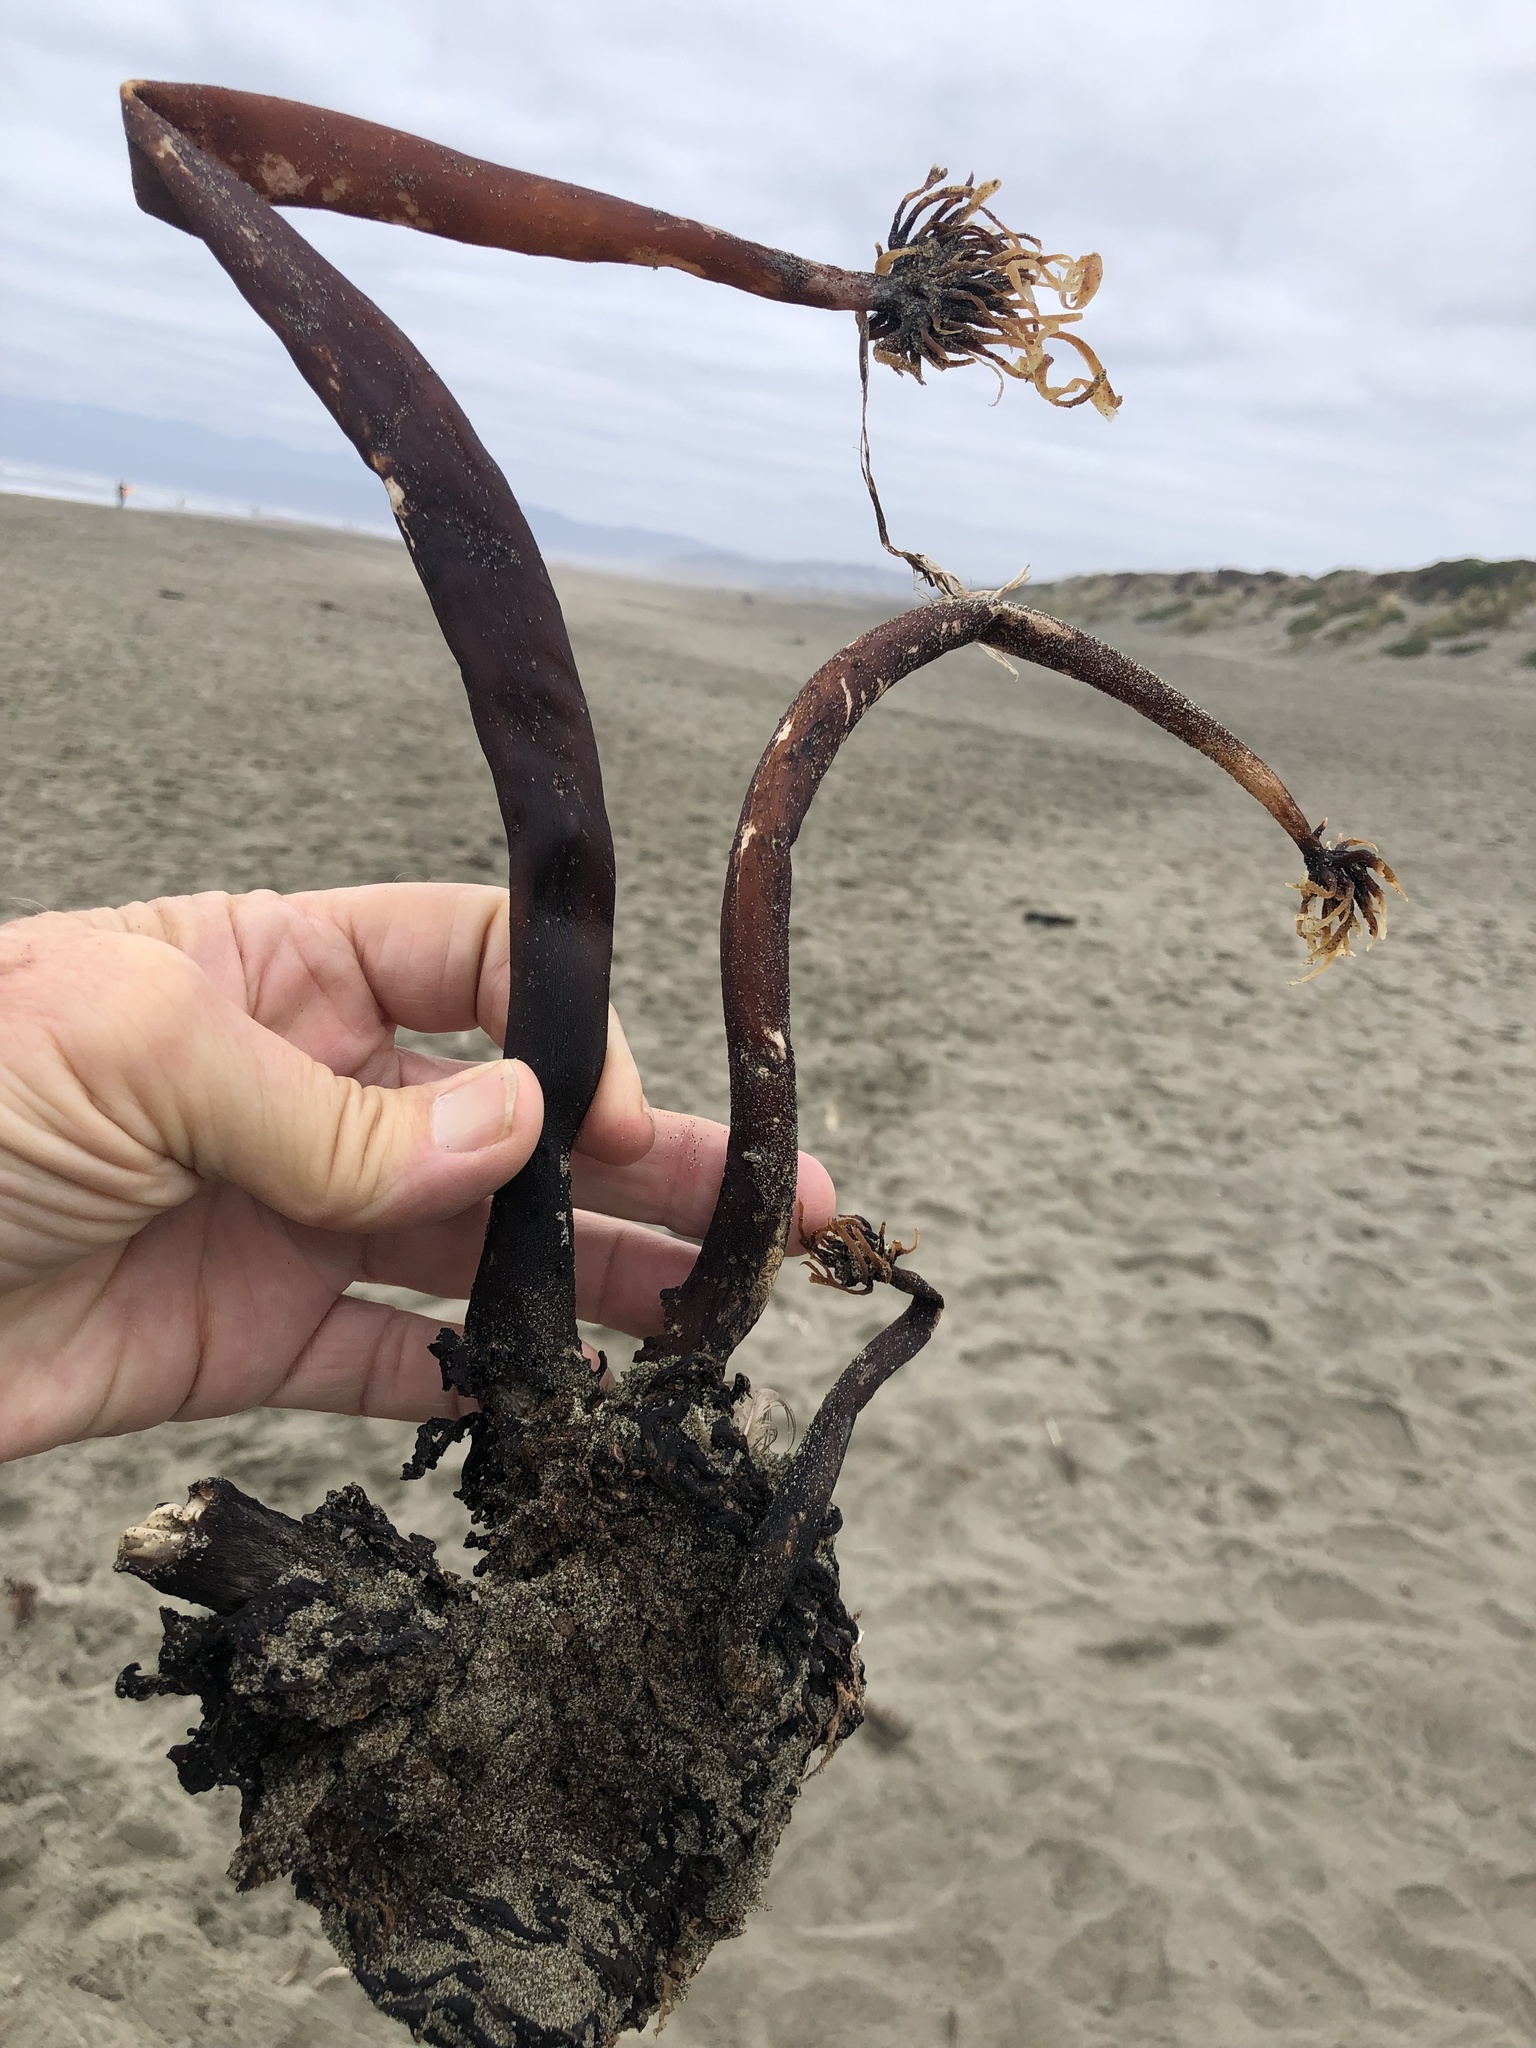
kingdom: Chromista
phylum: Ochrophyta
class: Phaeophyceae
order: Laminariales
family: Laminariaceae
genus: Postelsia
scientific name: Postelsia palmiformis
